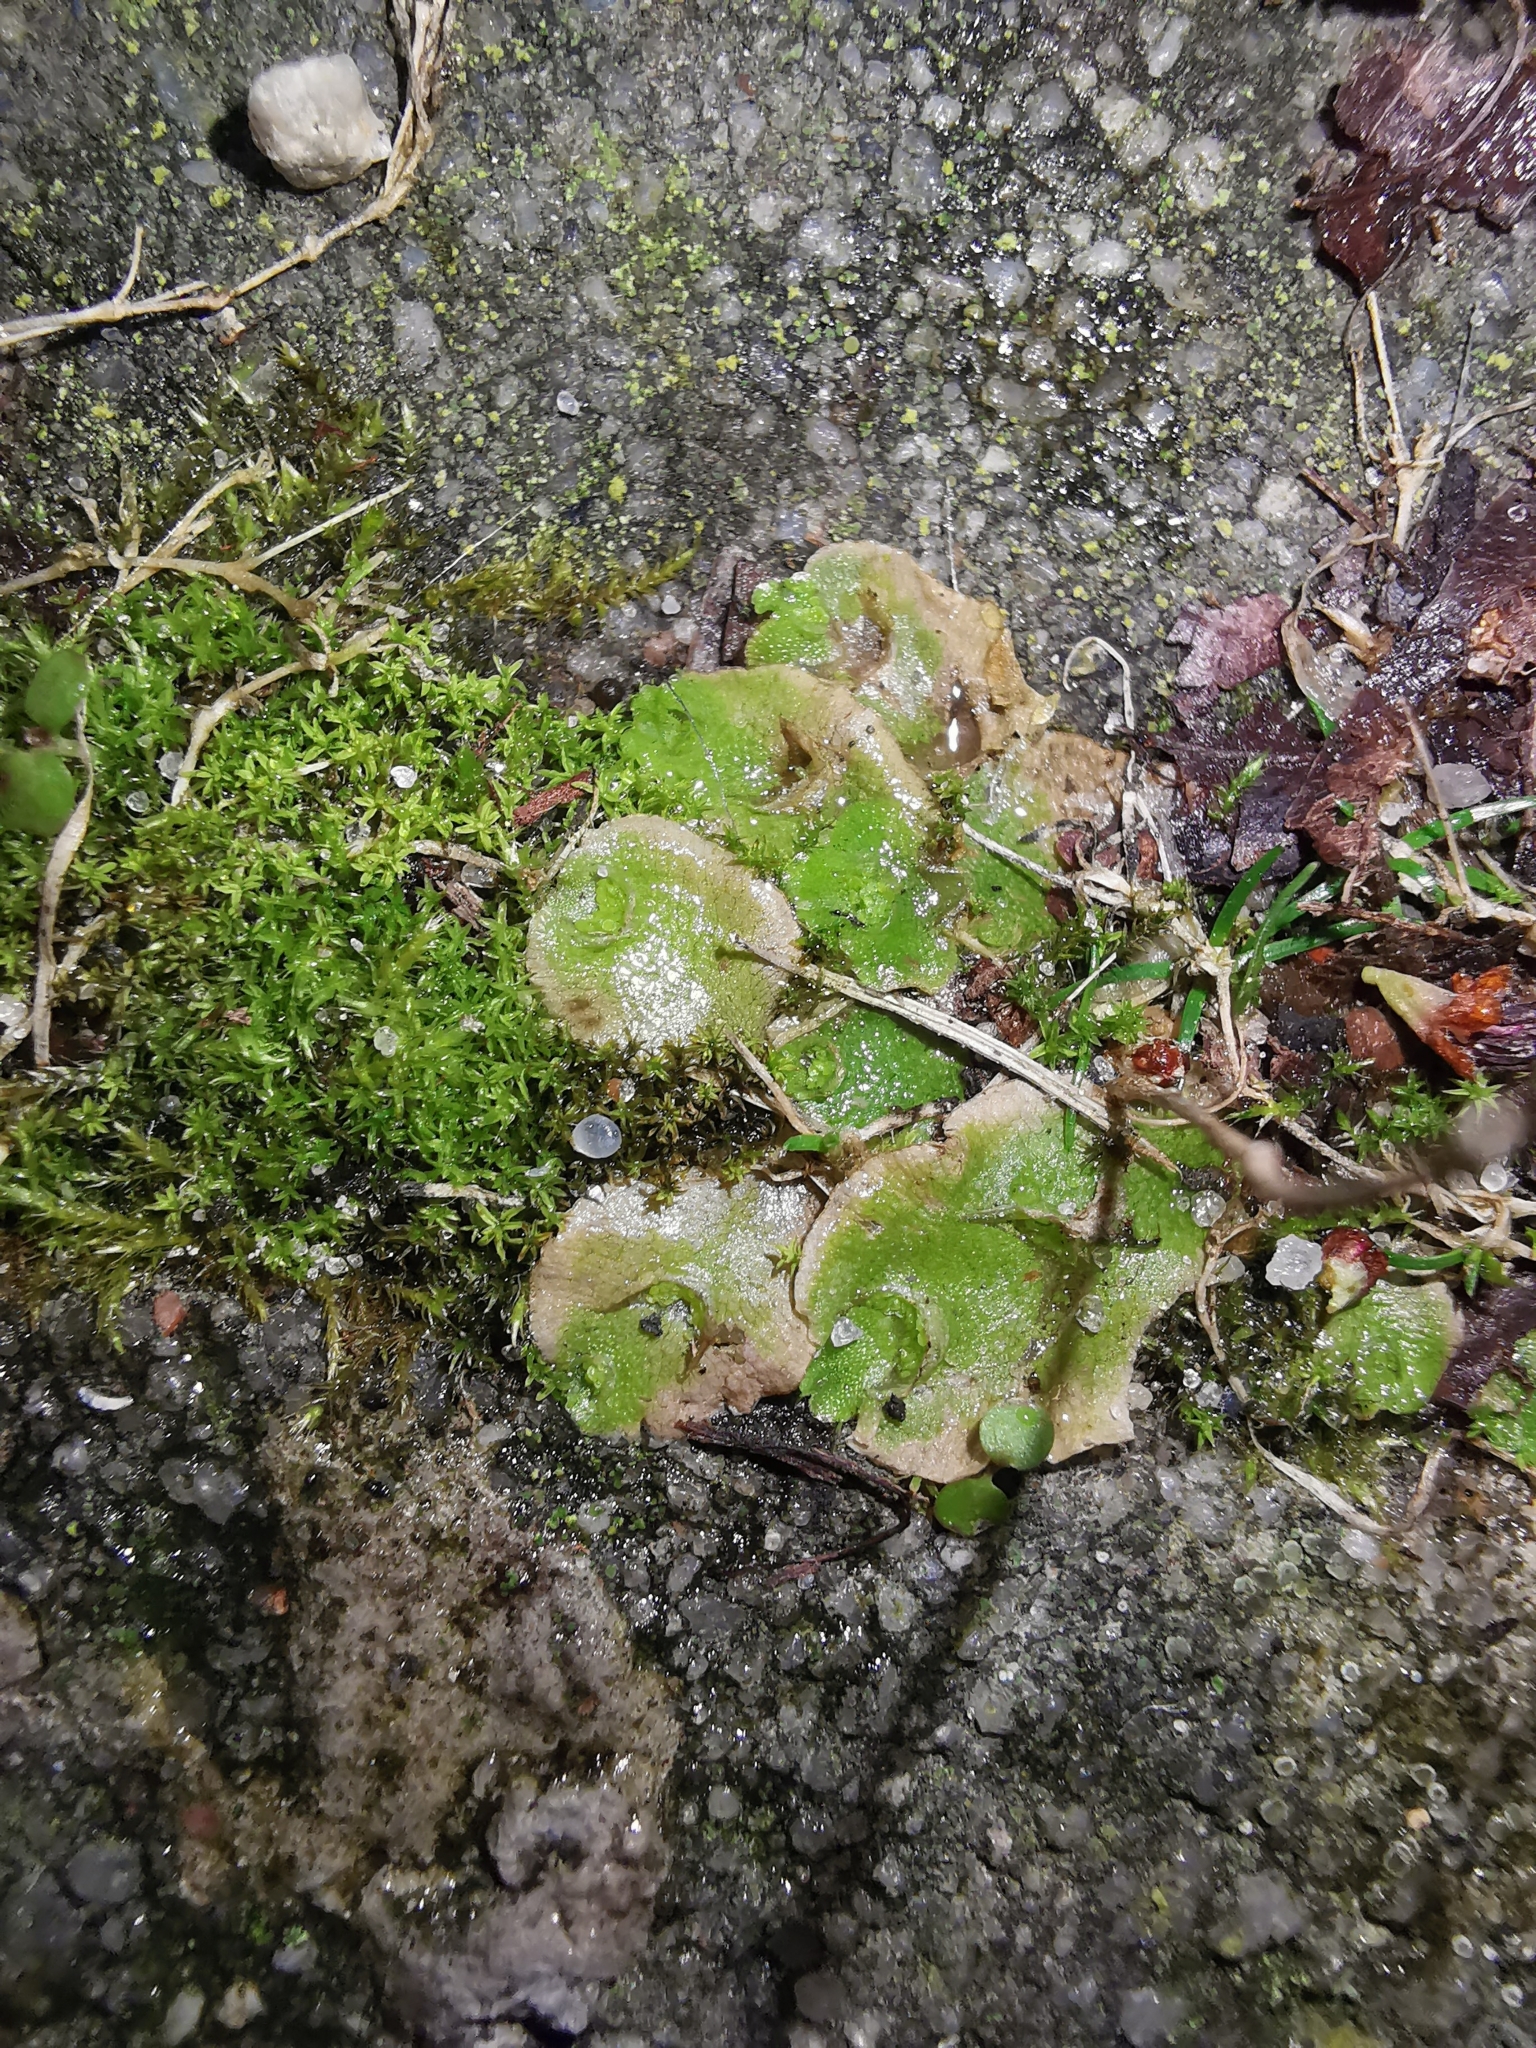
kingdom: Plantae
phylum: Marchantiophyta
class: Marchantiopsida
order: Lunulariales
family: Lunulariaceae
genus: Lunularia
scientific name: Lunularia cruciata
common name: Crescent-cup liverwort
